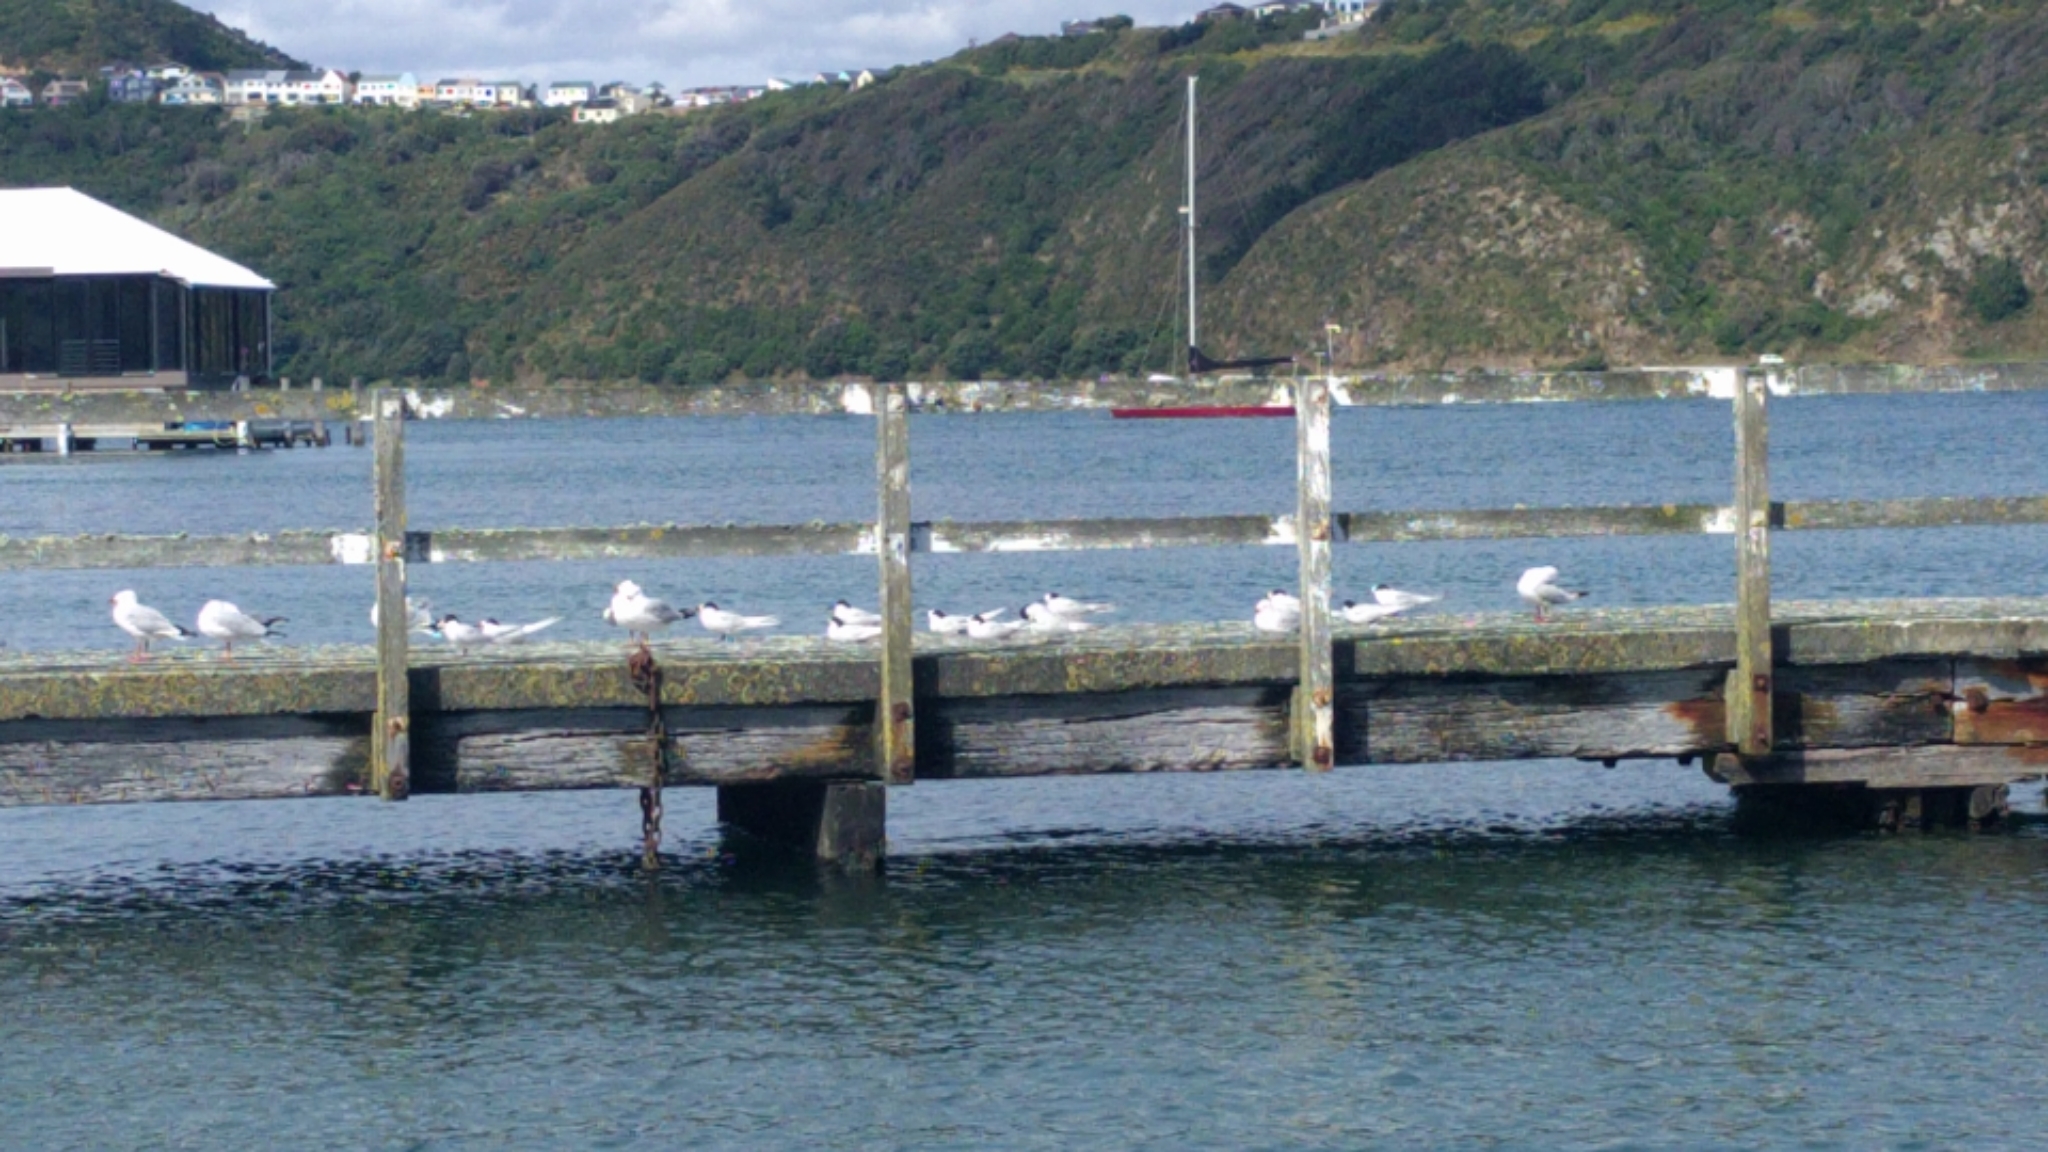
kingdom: Animalia
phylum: Chordata
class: Aves
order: Charadriiformes
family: Laridae
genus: Sterna
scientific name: Sterna striata
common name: White-fronted tern
